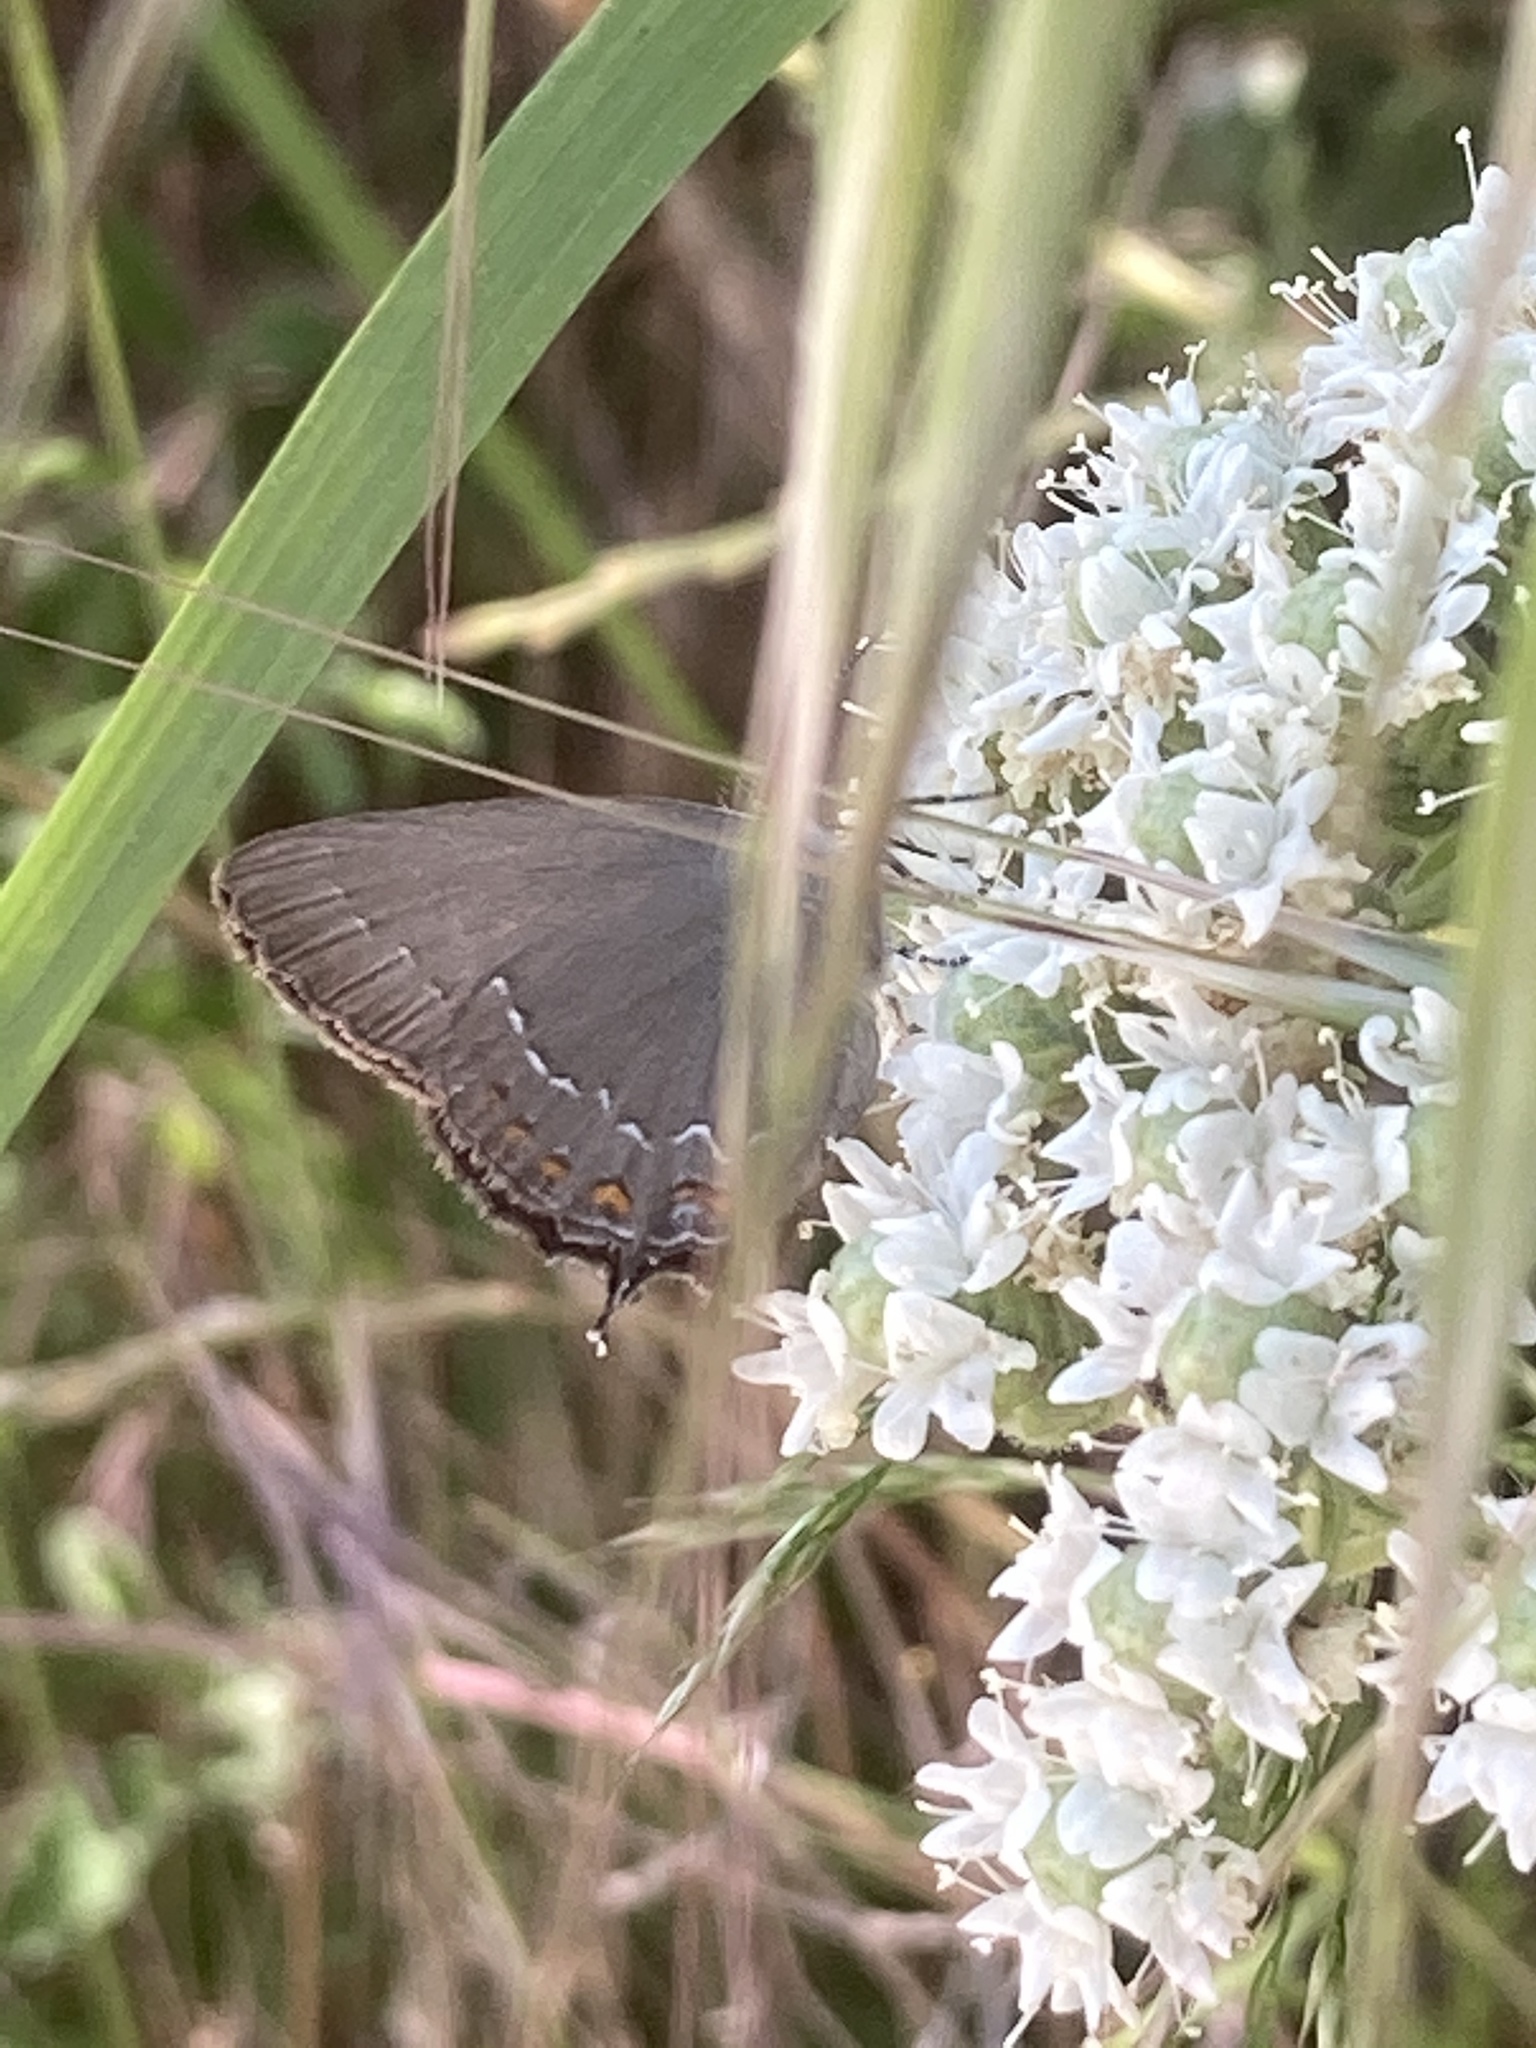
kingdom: Animalia
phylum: Arthropoda
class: Insecta
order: Lepidoptera
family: Lycaenidae
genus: Nordmannia
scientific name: Nordmannia ilicis
